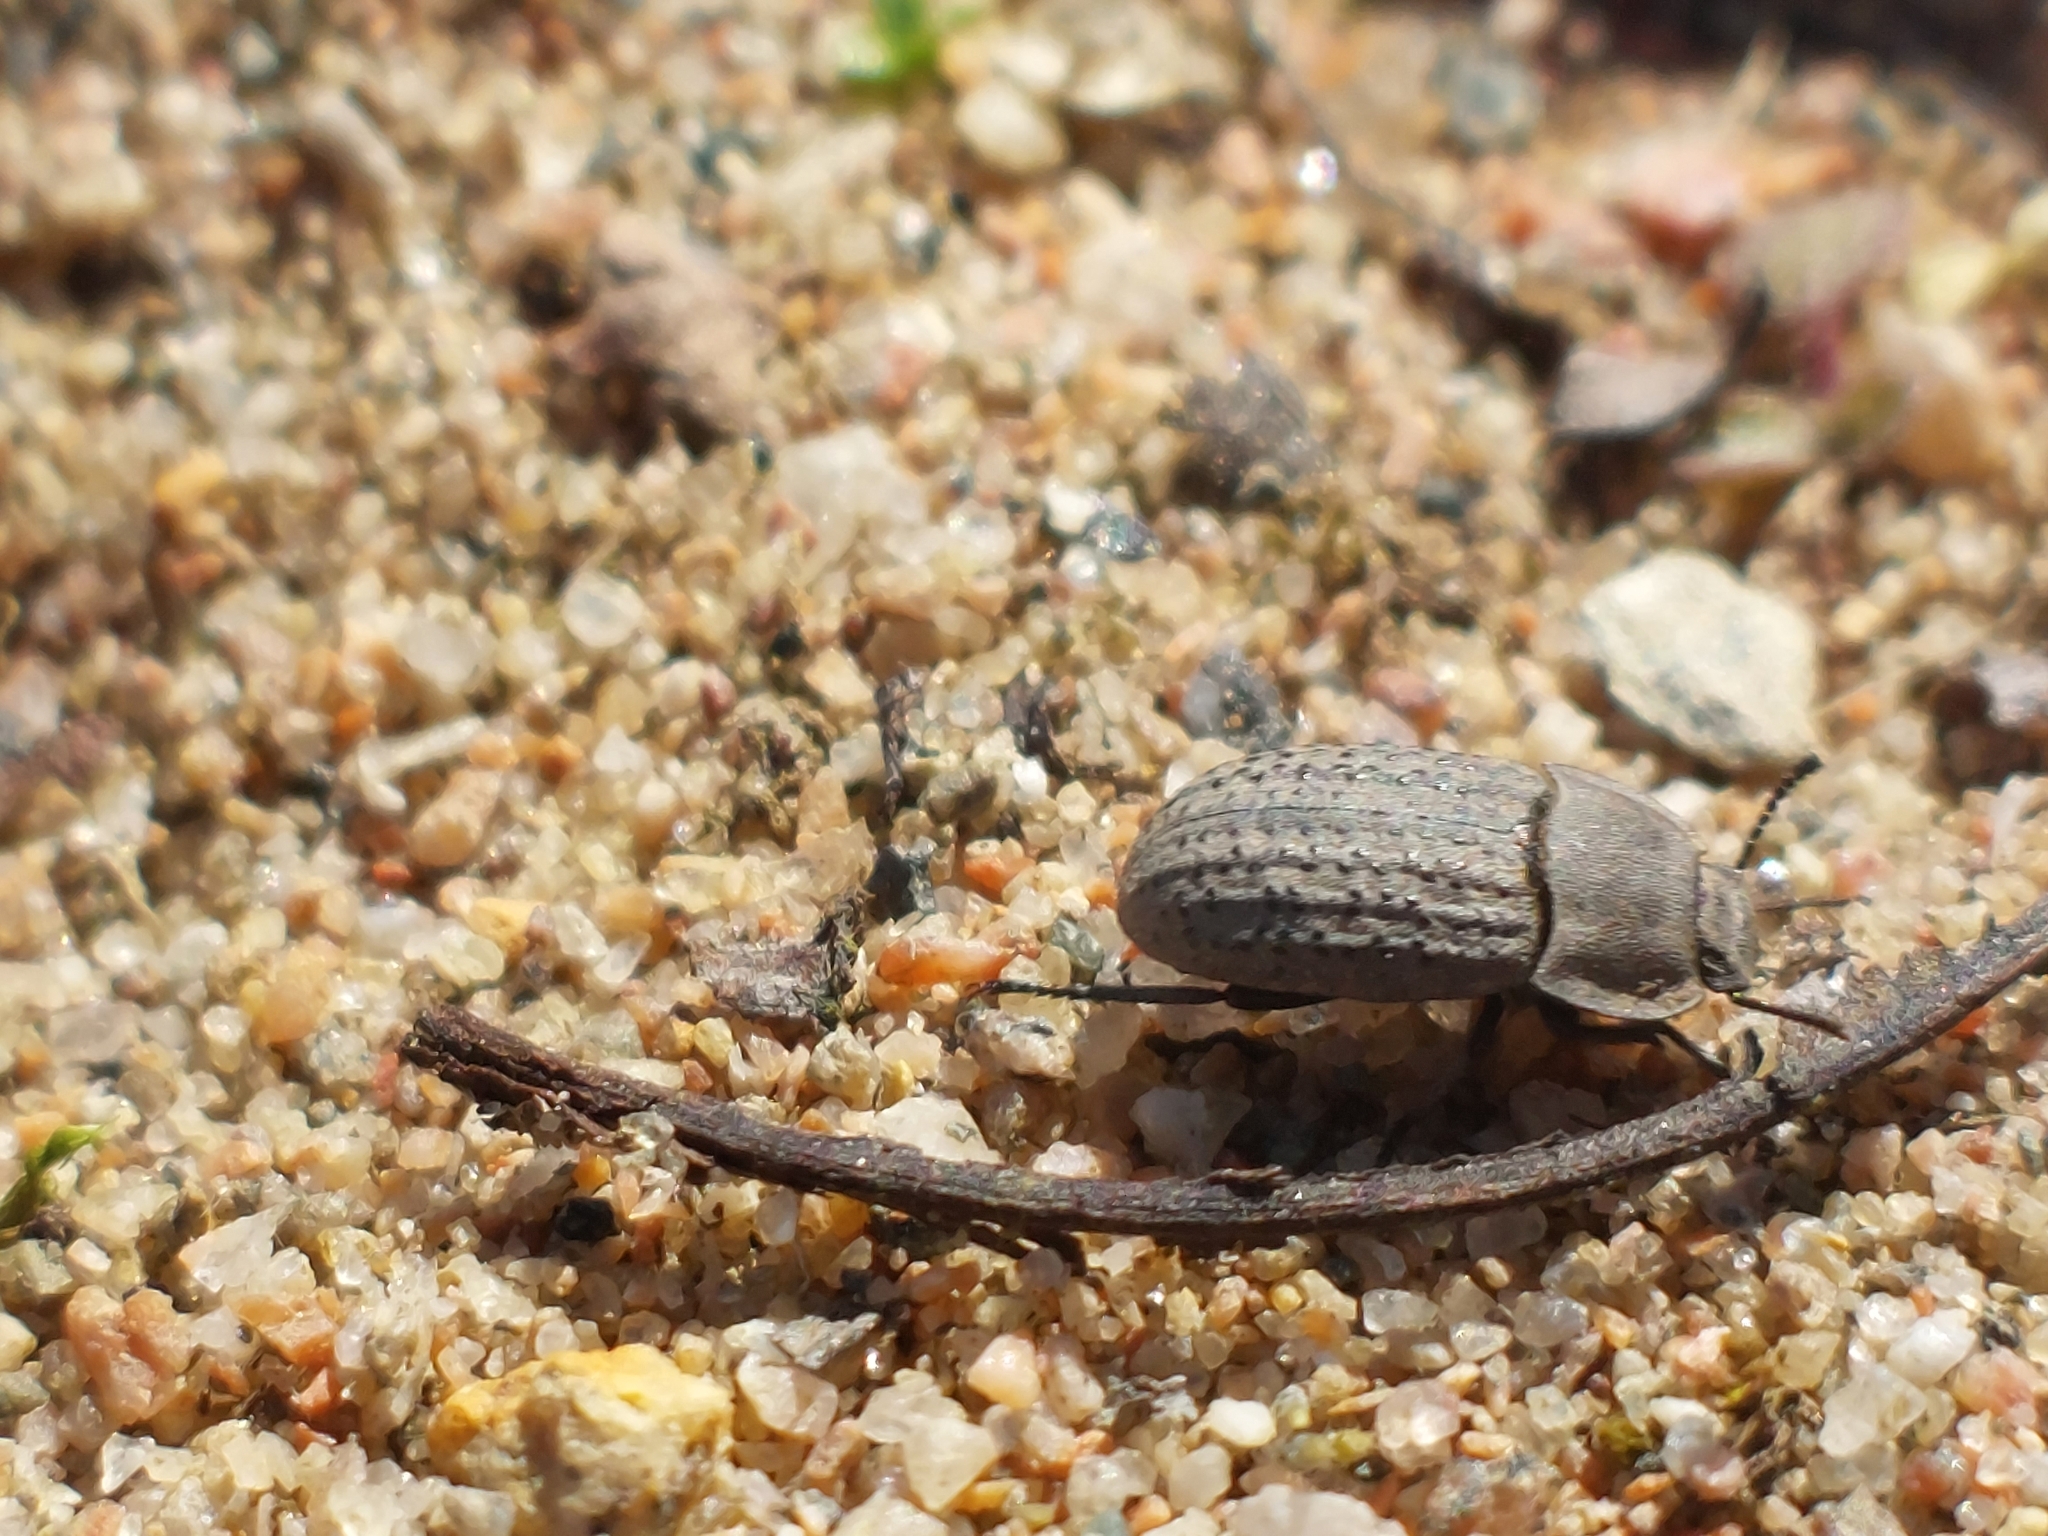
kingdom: Animalia
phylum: Arthropoda
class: Insecta
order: Coleoptera
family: Tenebrionidae
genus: Opatrum
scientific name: Opatrum sabulosum
